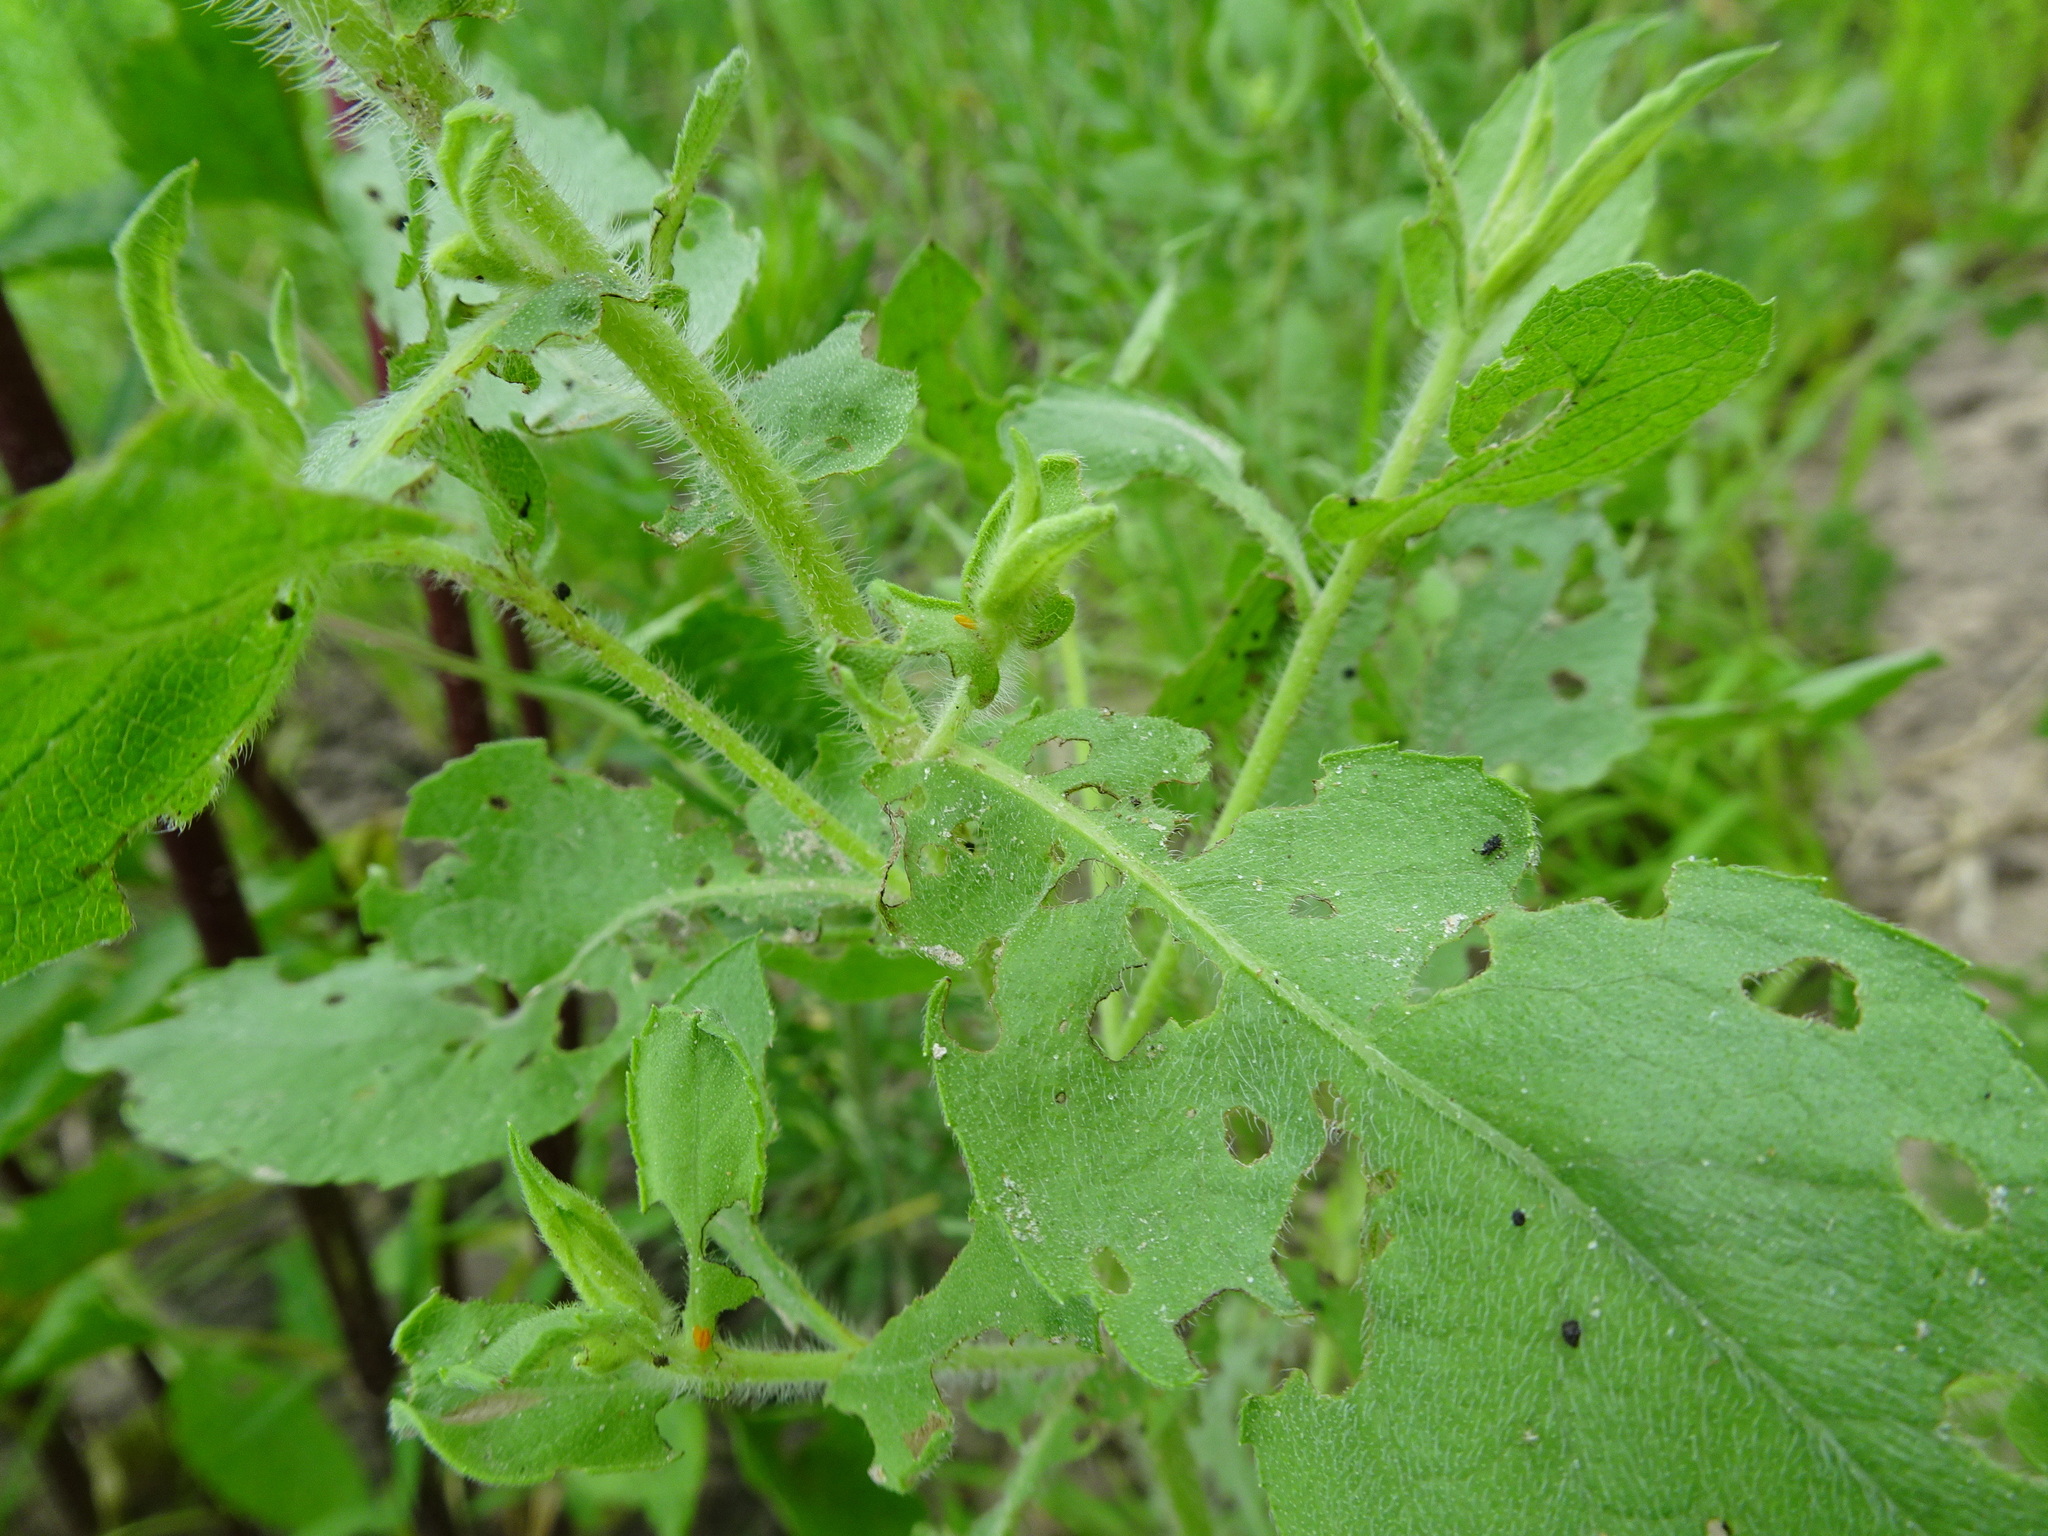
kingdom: Plantae
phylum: Tracheophyta
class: Magnoliopsida
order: Asterales
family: Asteraceae
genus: Heterotheca
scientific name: Heterotheca subaxillaris
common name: Camphorweed
